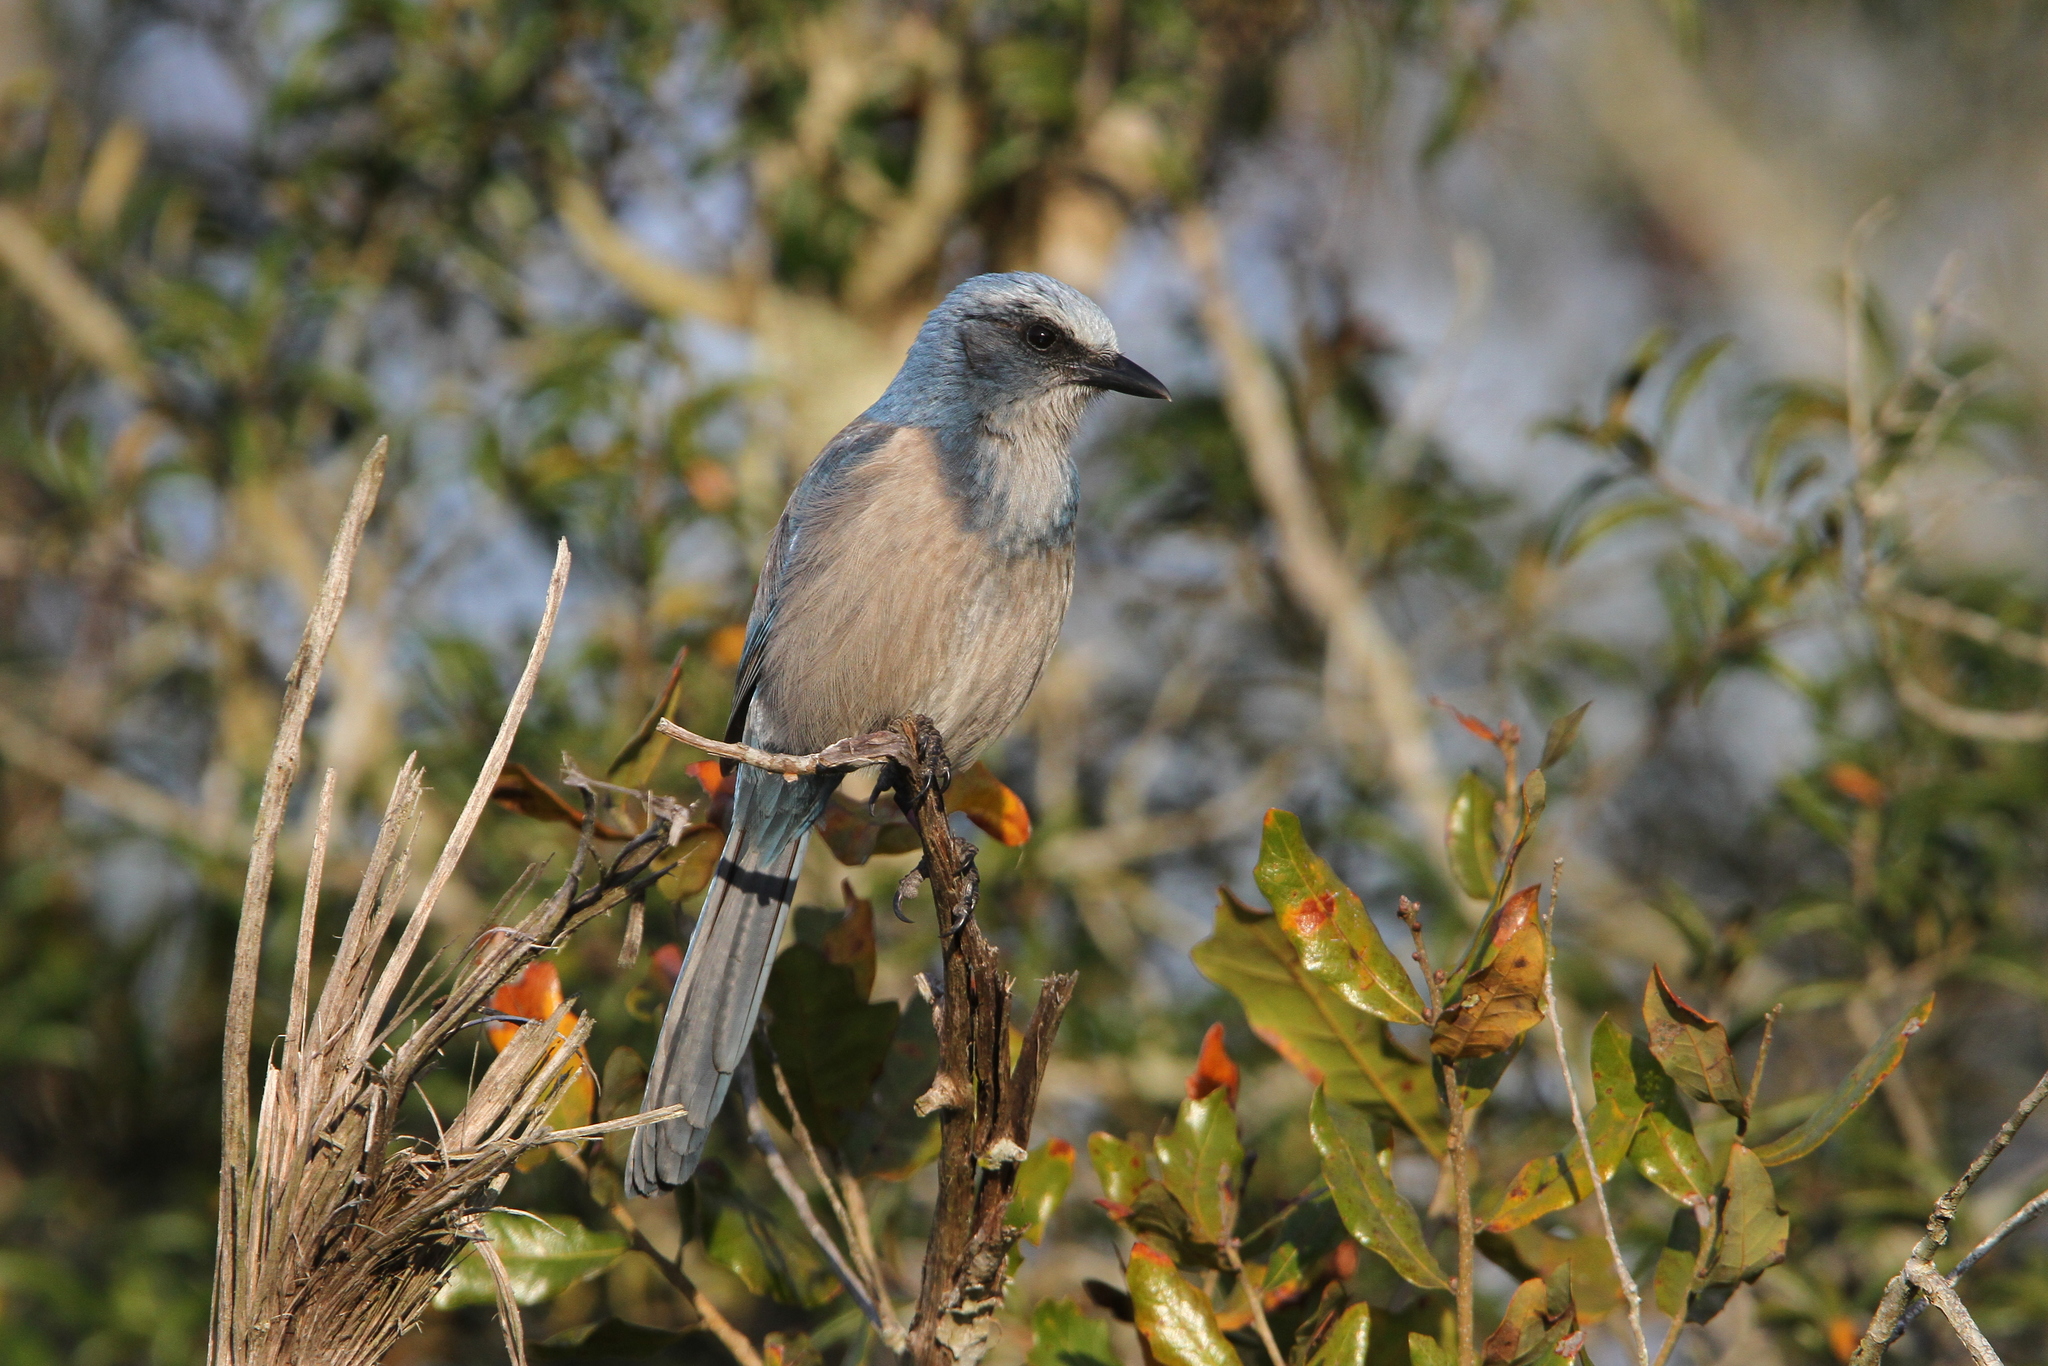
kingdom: Animalia
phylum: Chordata
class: Aves
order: Passeriformes
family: Corvidae
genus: Aphelocoma
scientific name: Aphelocoma coerulescens
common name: Florida scrub jay
